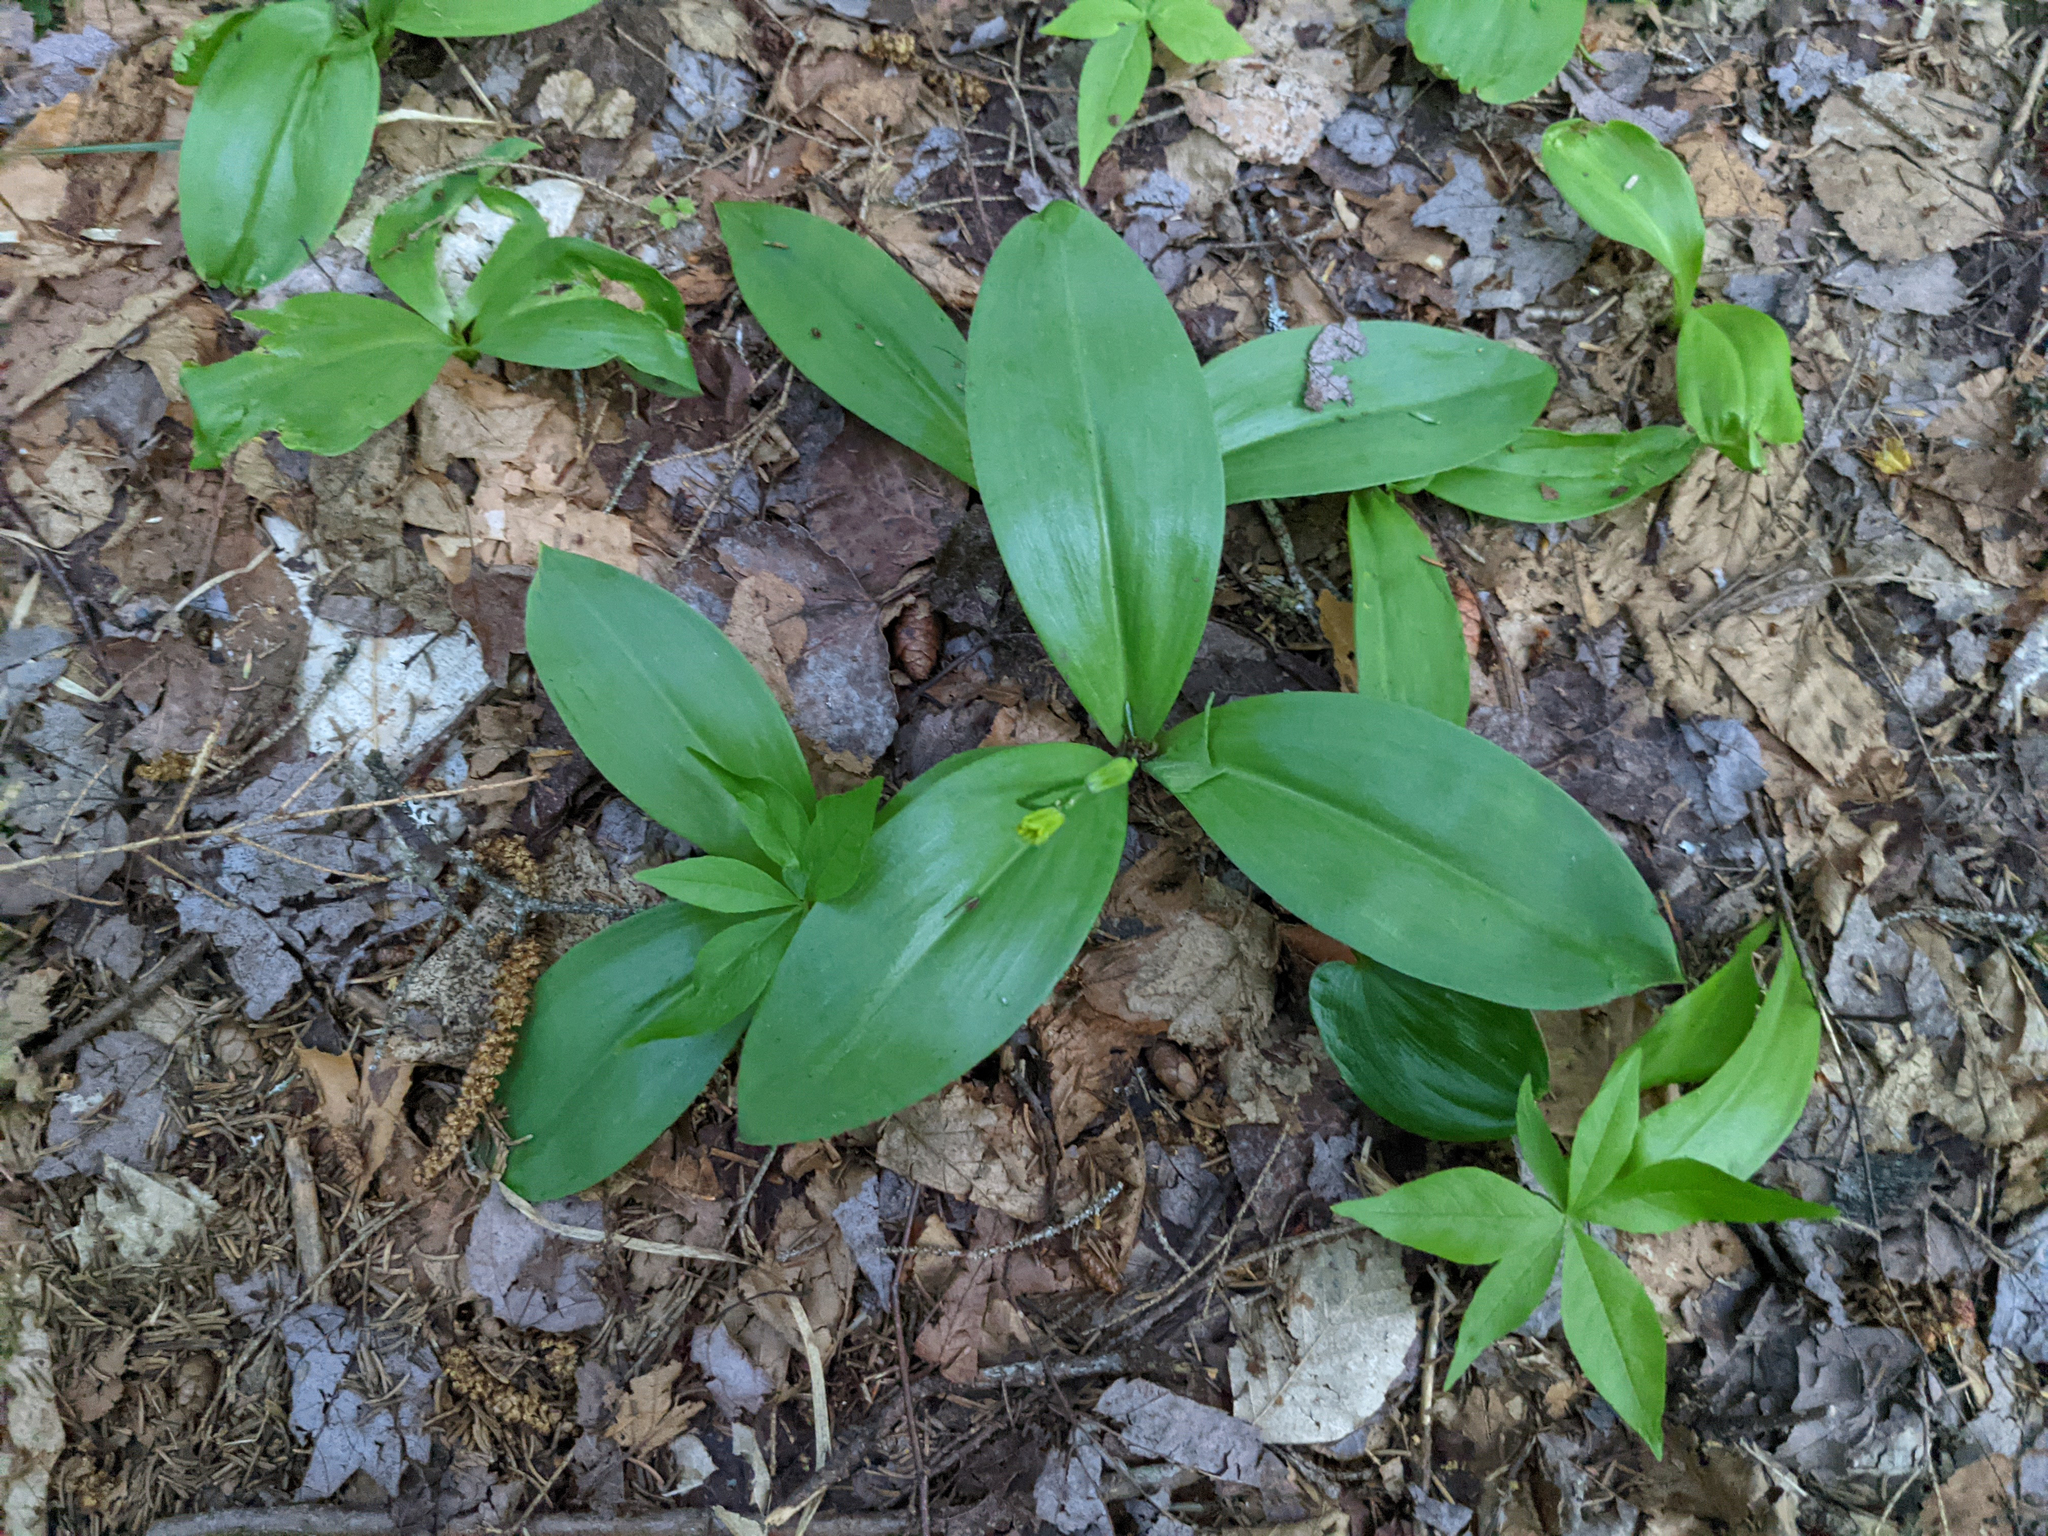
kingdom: Plantae
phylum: Tracheophyta
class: Liliopsida
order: Liliales
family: Liliaceae
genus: Clintonia
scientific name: Clintonia borealis
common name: Yellow clintonia
